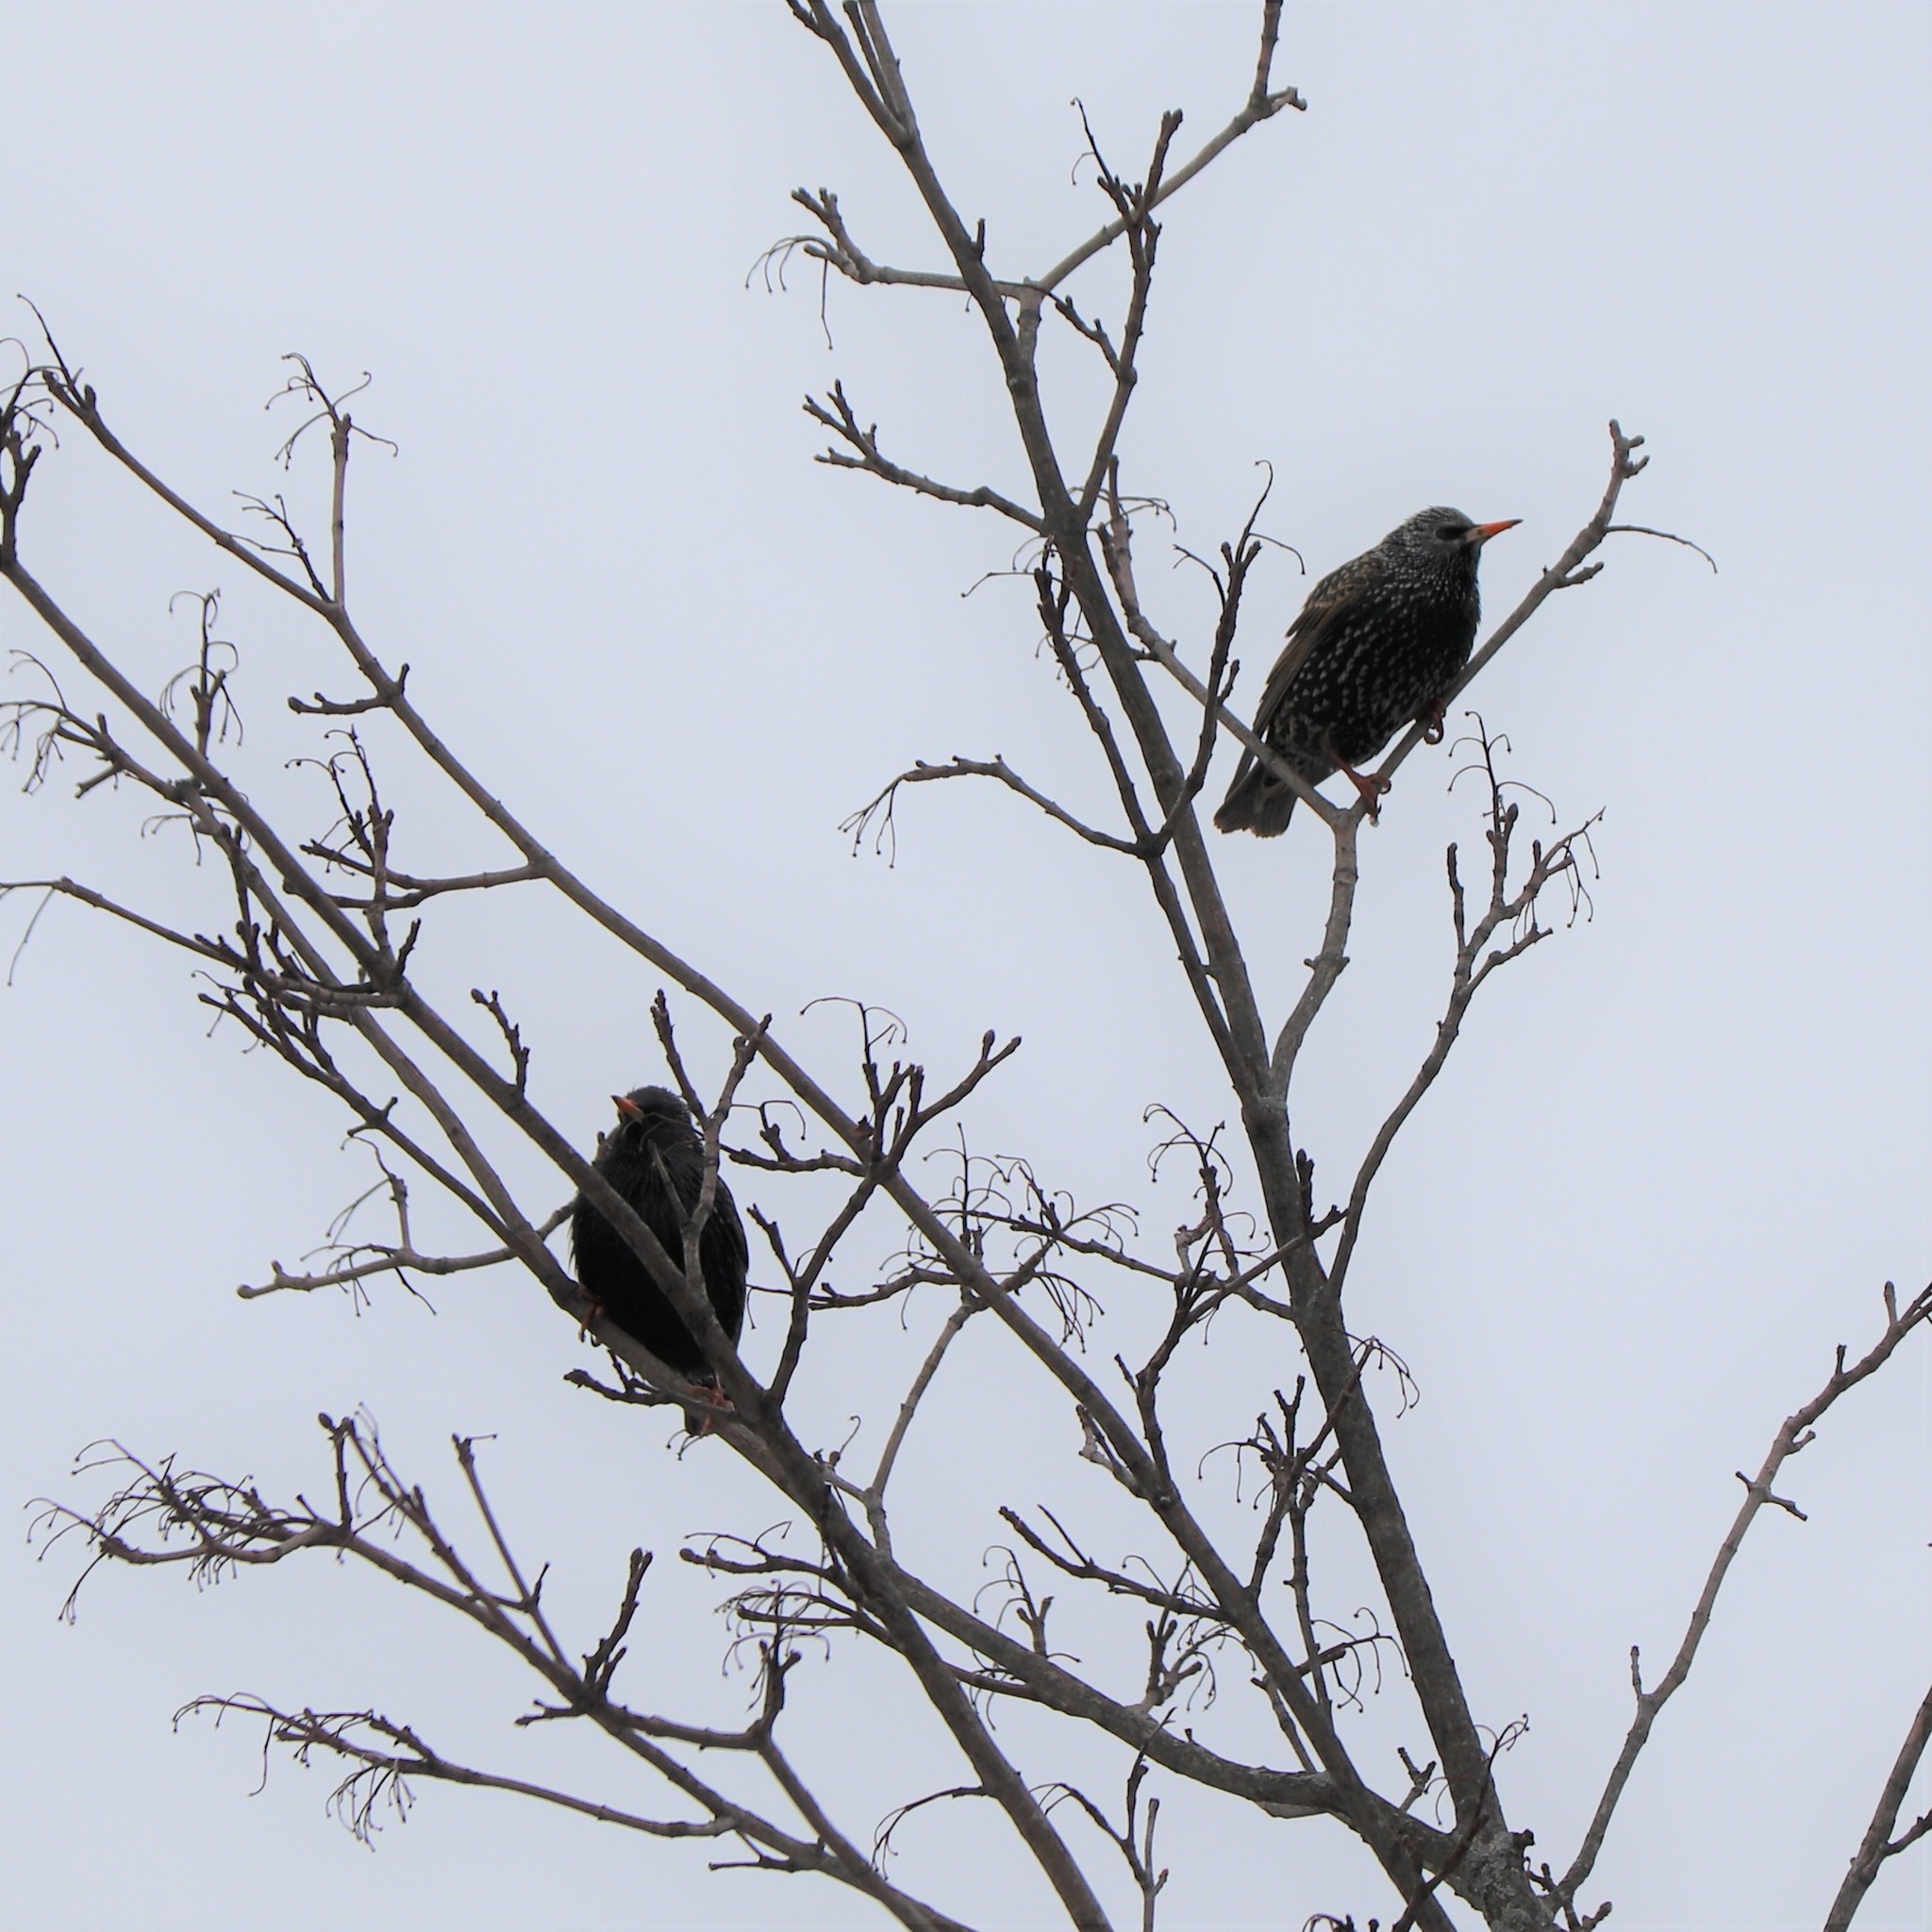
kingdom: Animalia
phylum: Chordata
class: Aves
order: Passeriformes
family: Sturnidae
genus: Sturnus
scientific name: Sturnus vulgaris
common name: Common starling
